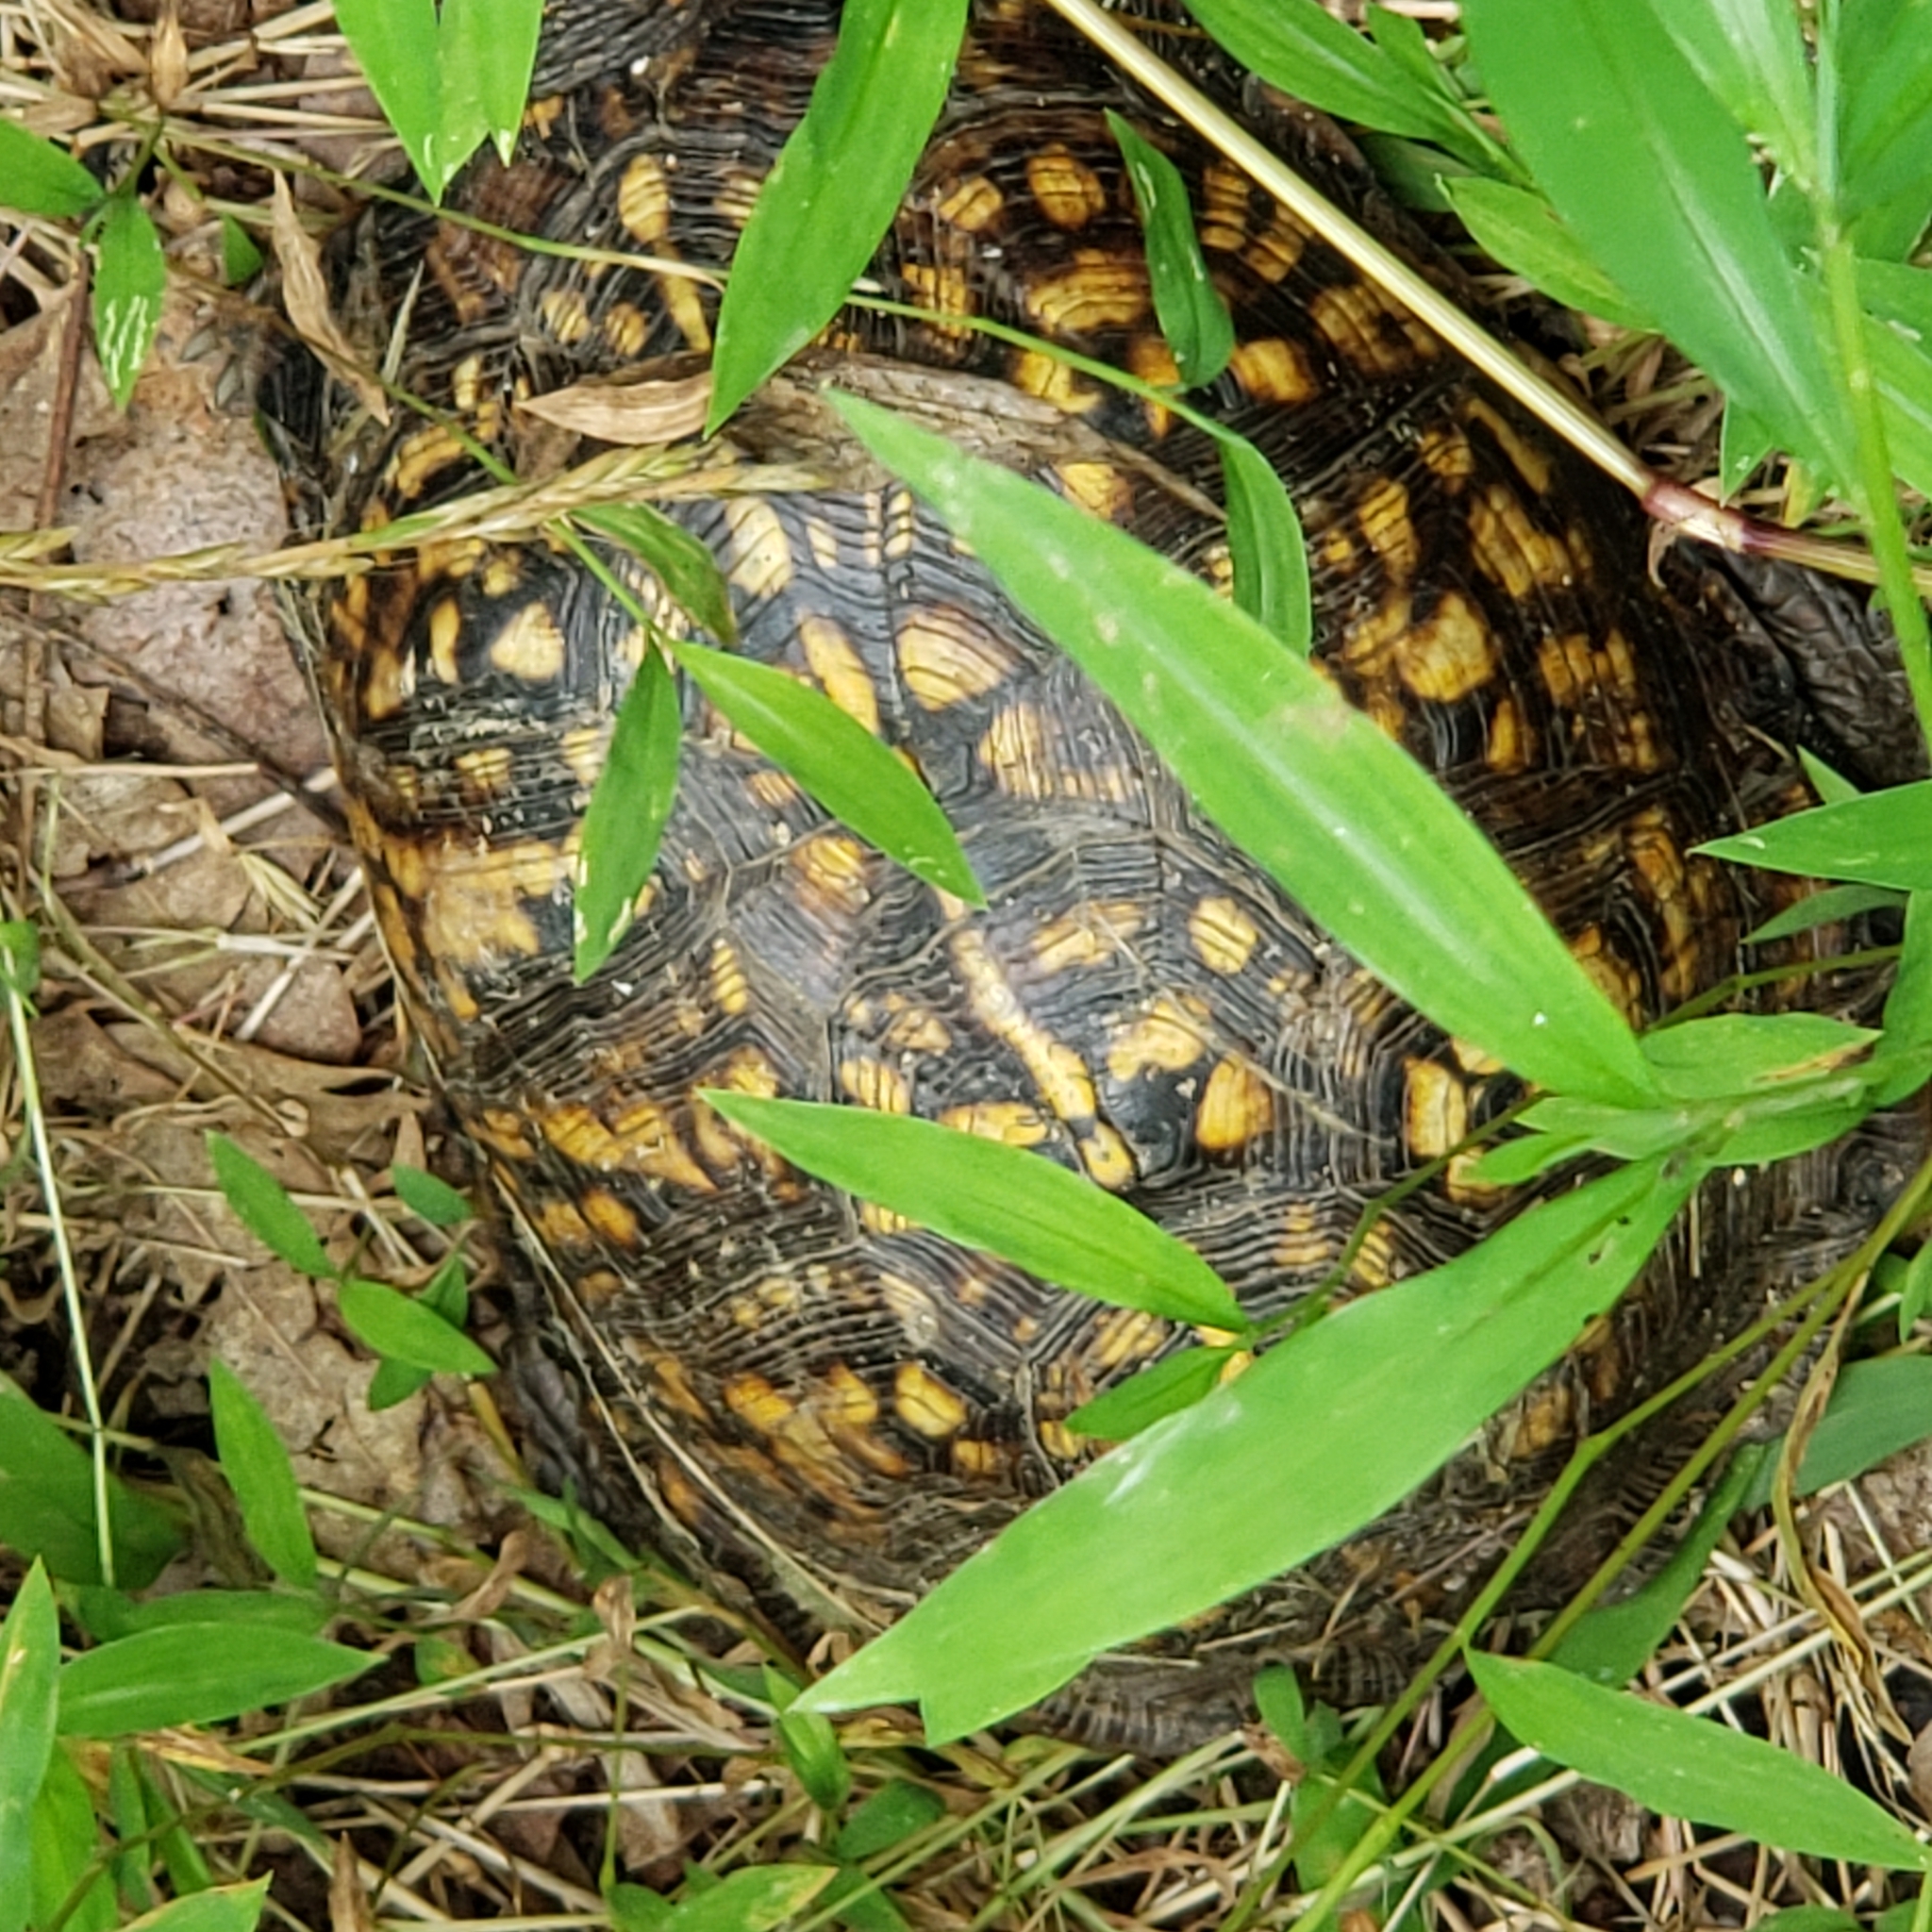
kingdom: Animalia
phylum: Chordata
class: Testudines
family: Emydidae
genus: Terrapene
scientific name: Terrapene carolina
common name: Common box turtle
